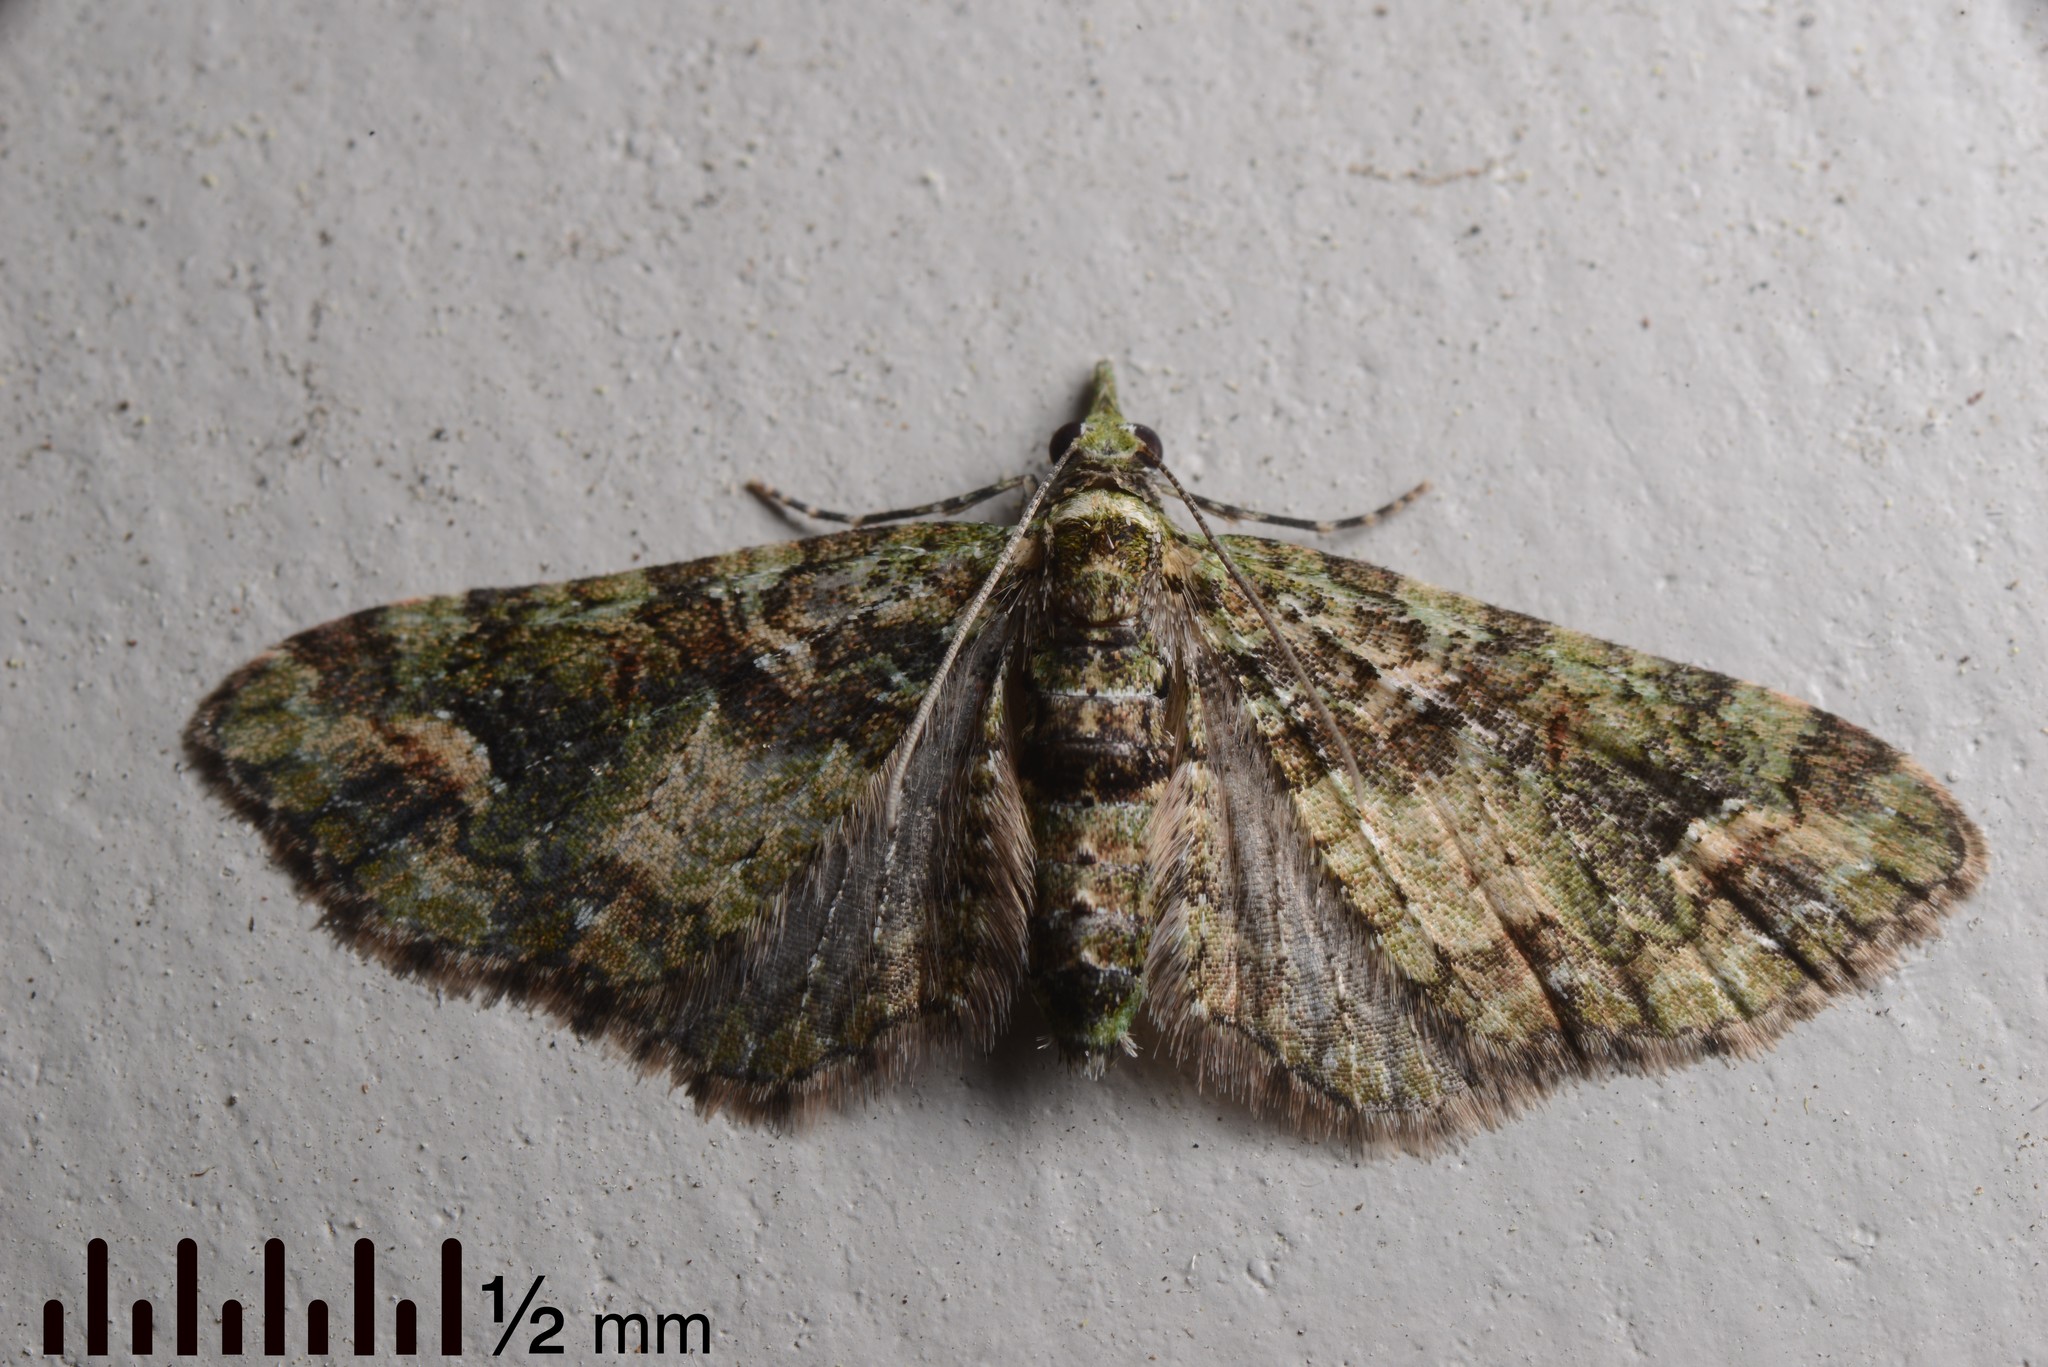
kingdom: Animalia
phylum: Arthropoda
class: Insecta
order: Lepidoptera
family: Geometridae
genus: Idaea
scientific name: Idaea mutanda
